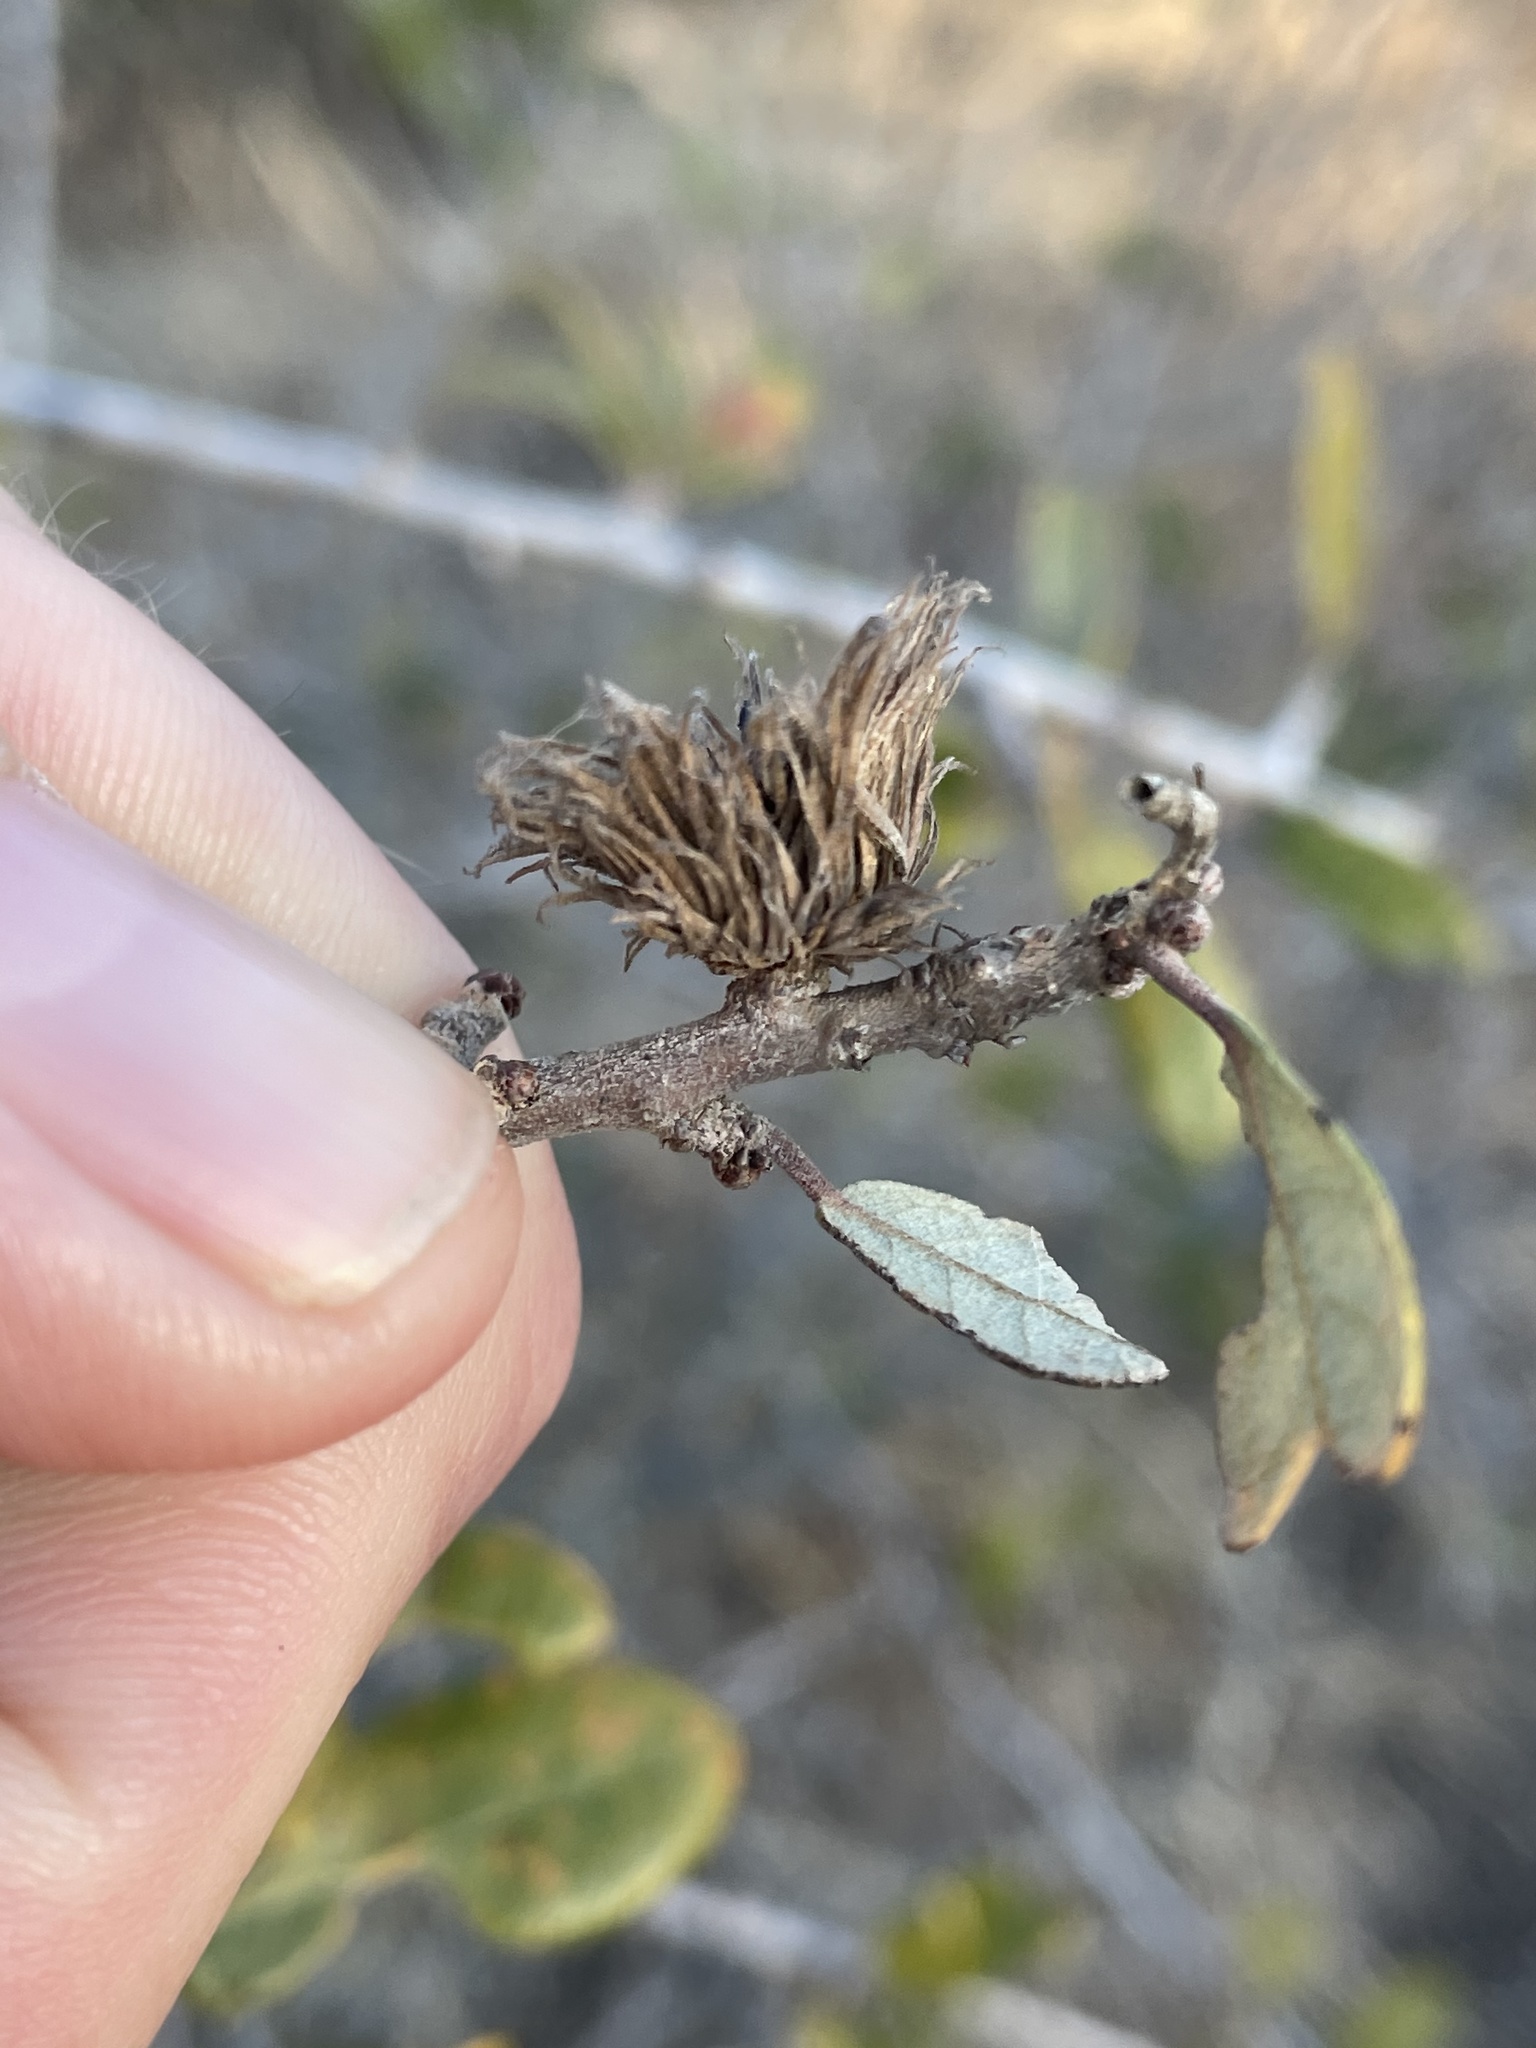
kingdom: Animalia
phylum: Arthropoda
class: Insecta
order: Hymenoptera
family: Cynipidae
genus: Andricus
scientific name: Andricus quercusfoliatus
